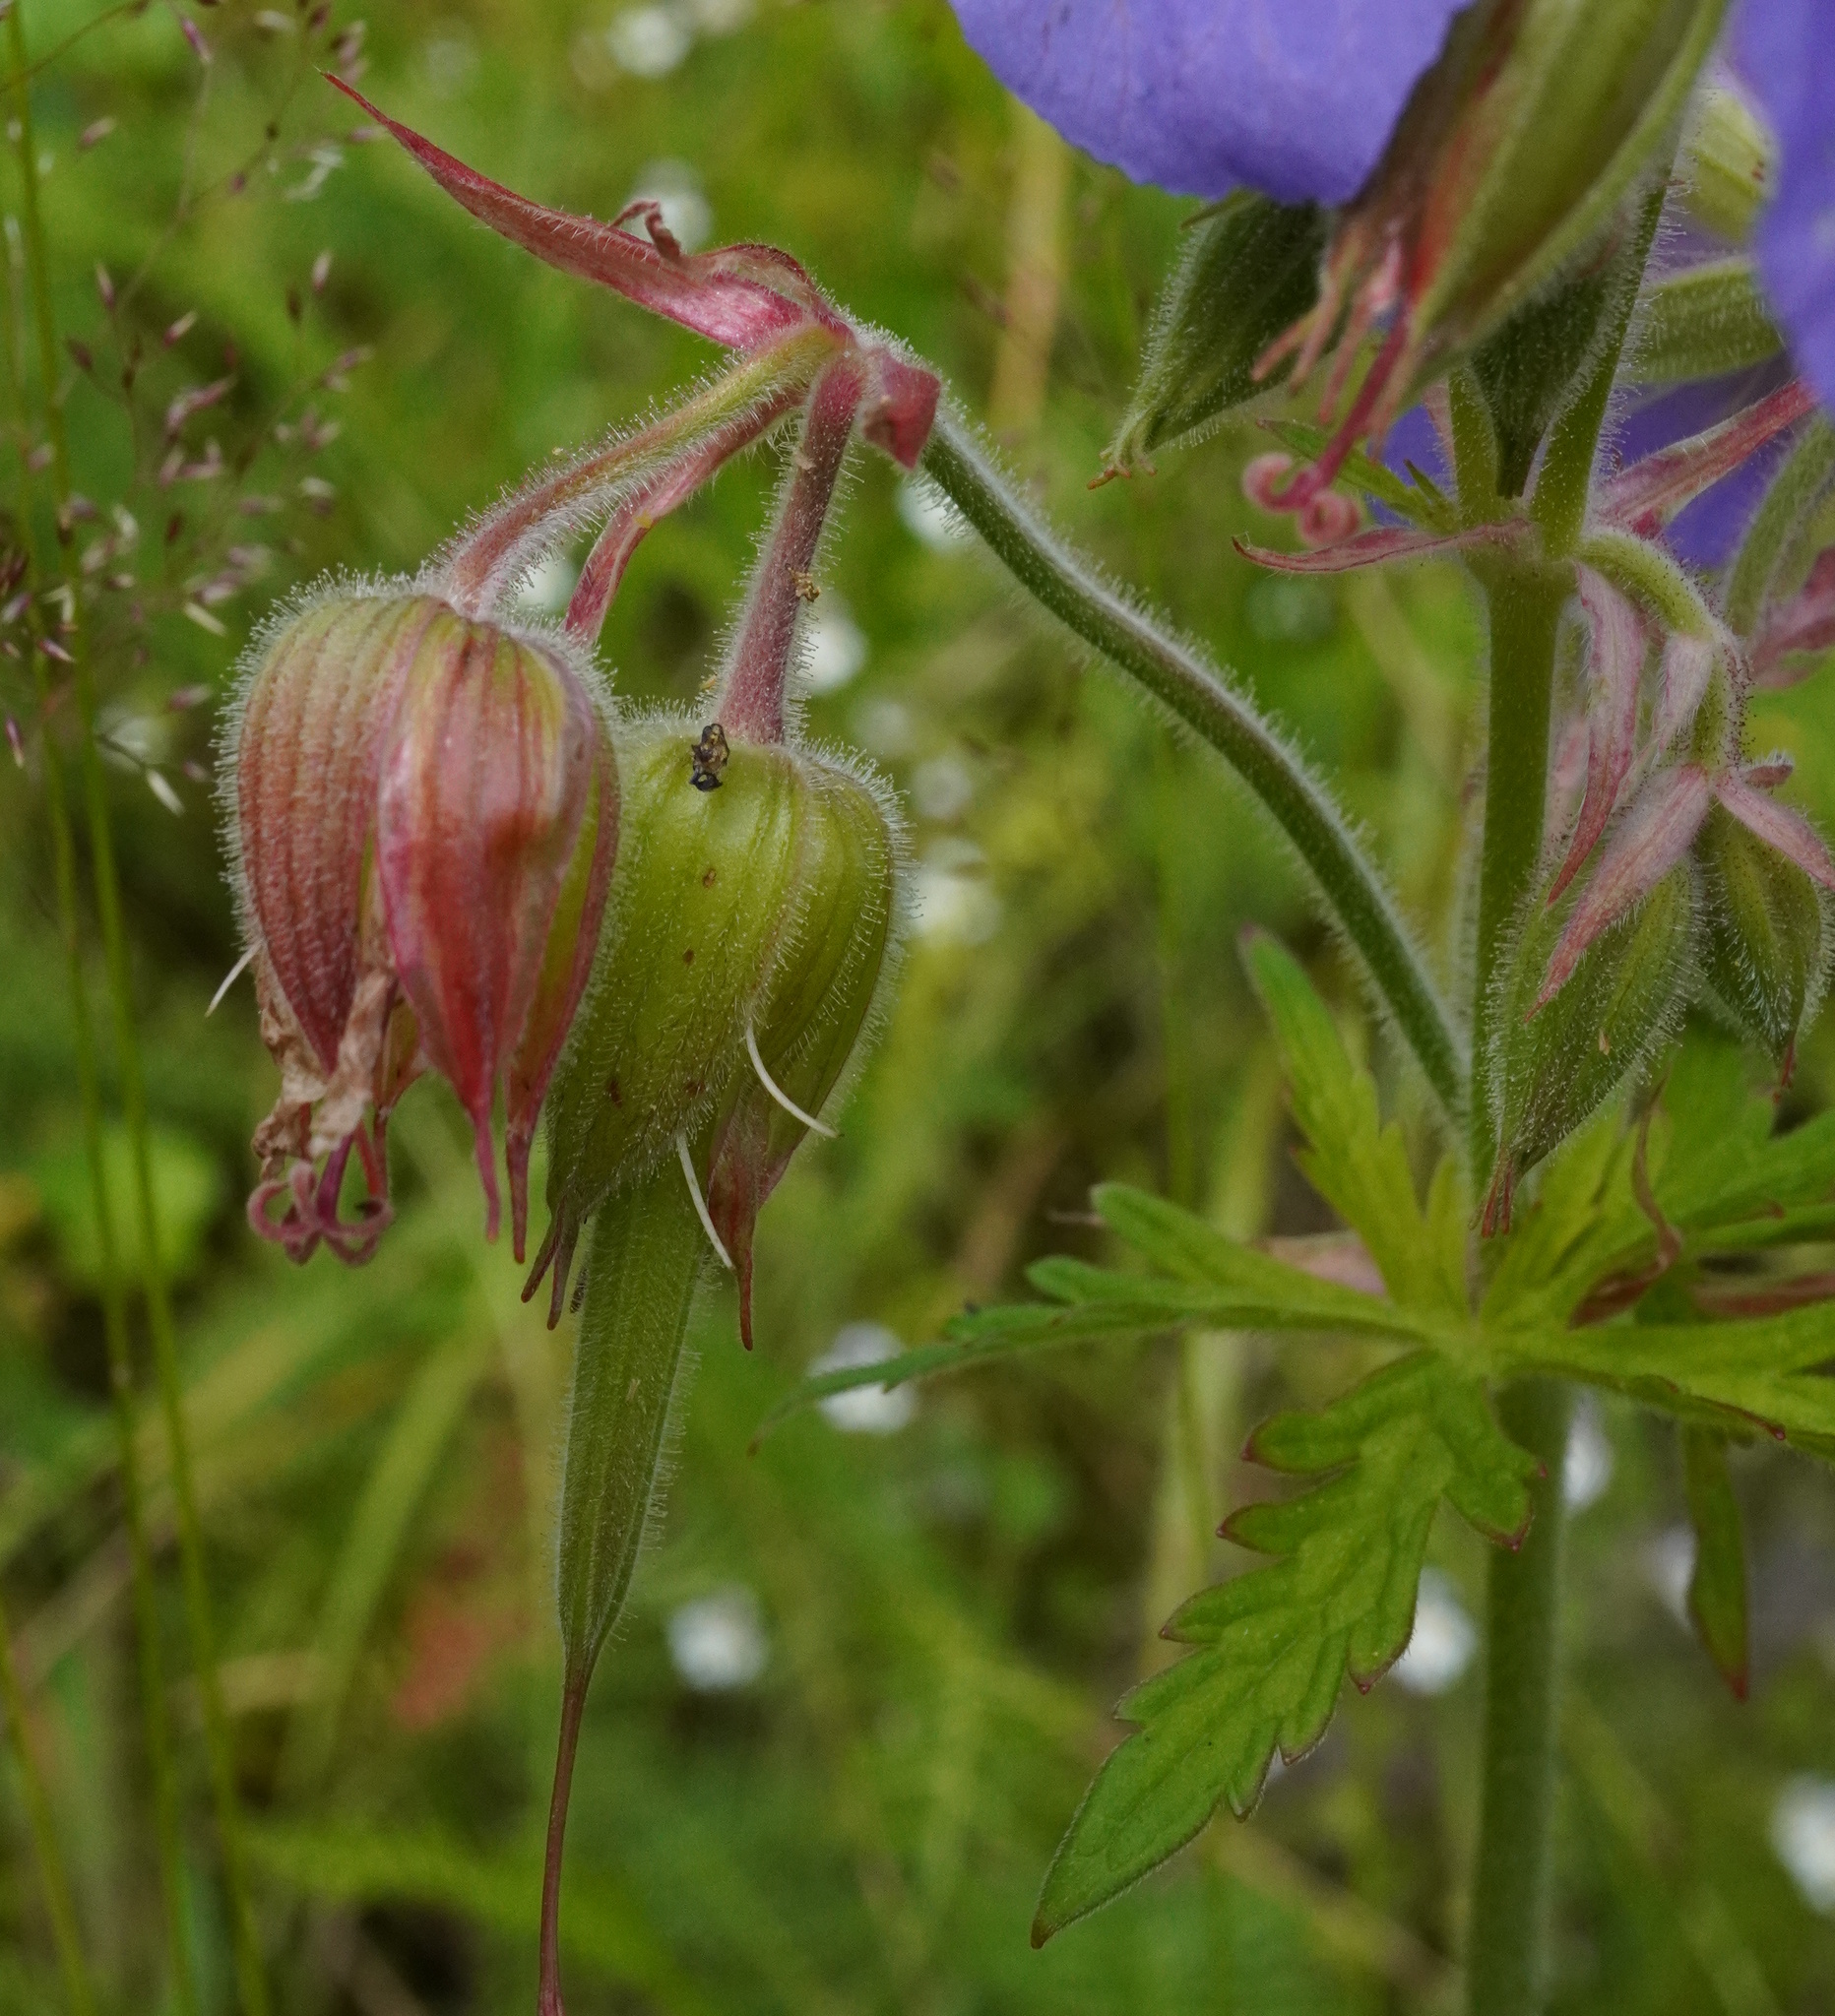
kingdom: Plantae
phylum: Tracheophyta
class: Magnoliopsida
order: Geraniales
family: Geraniaceae
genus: Geranium
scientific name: Geranium pratense
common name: Meadow crane's-bill
